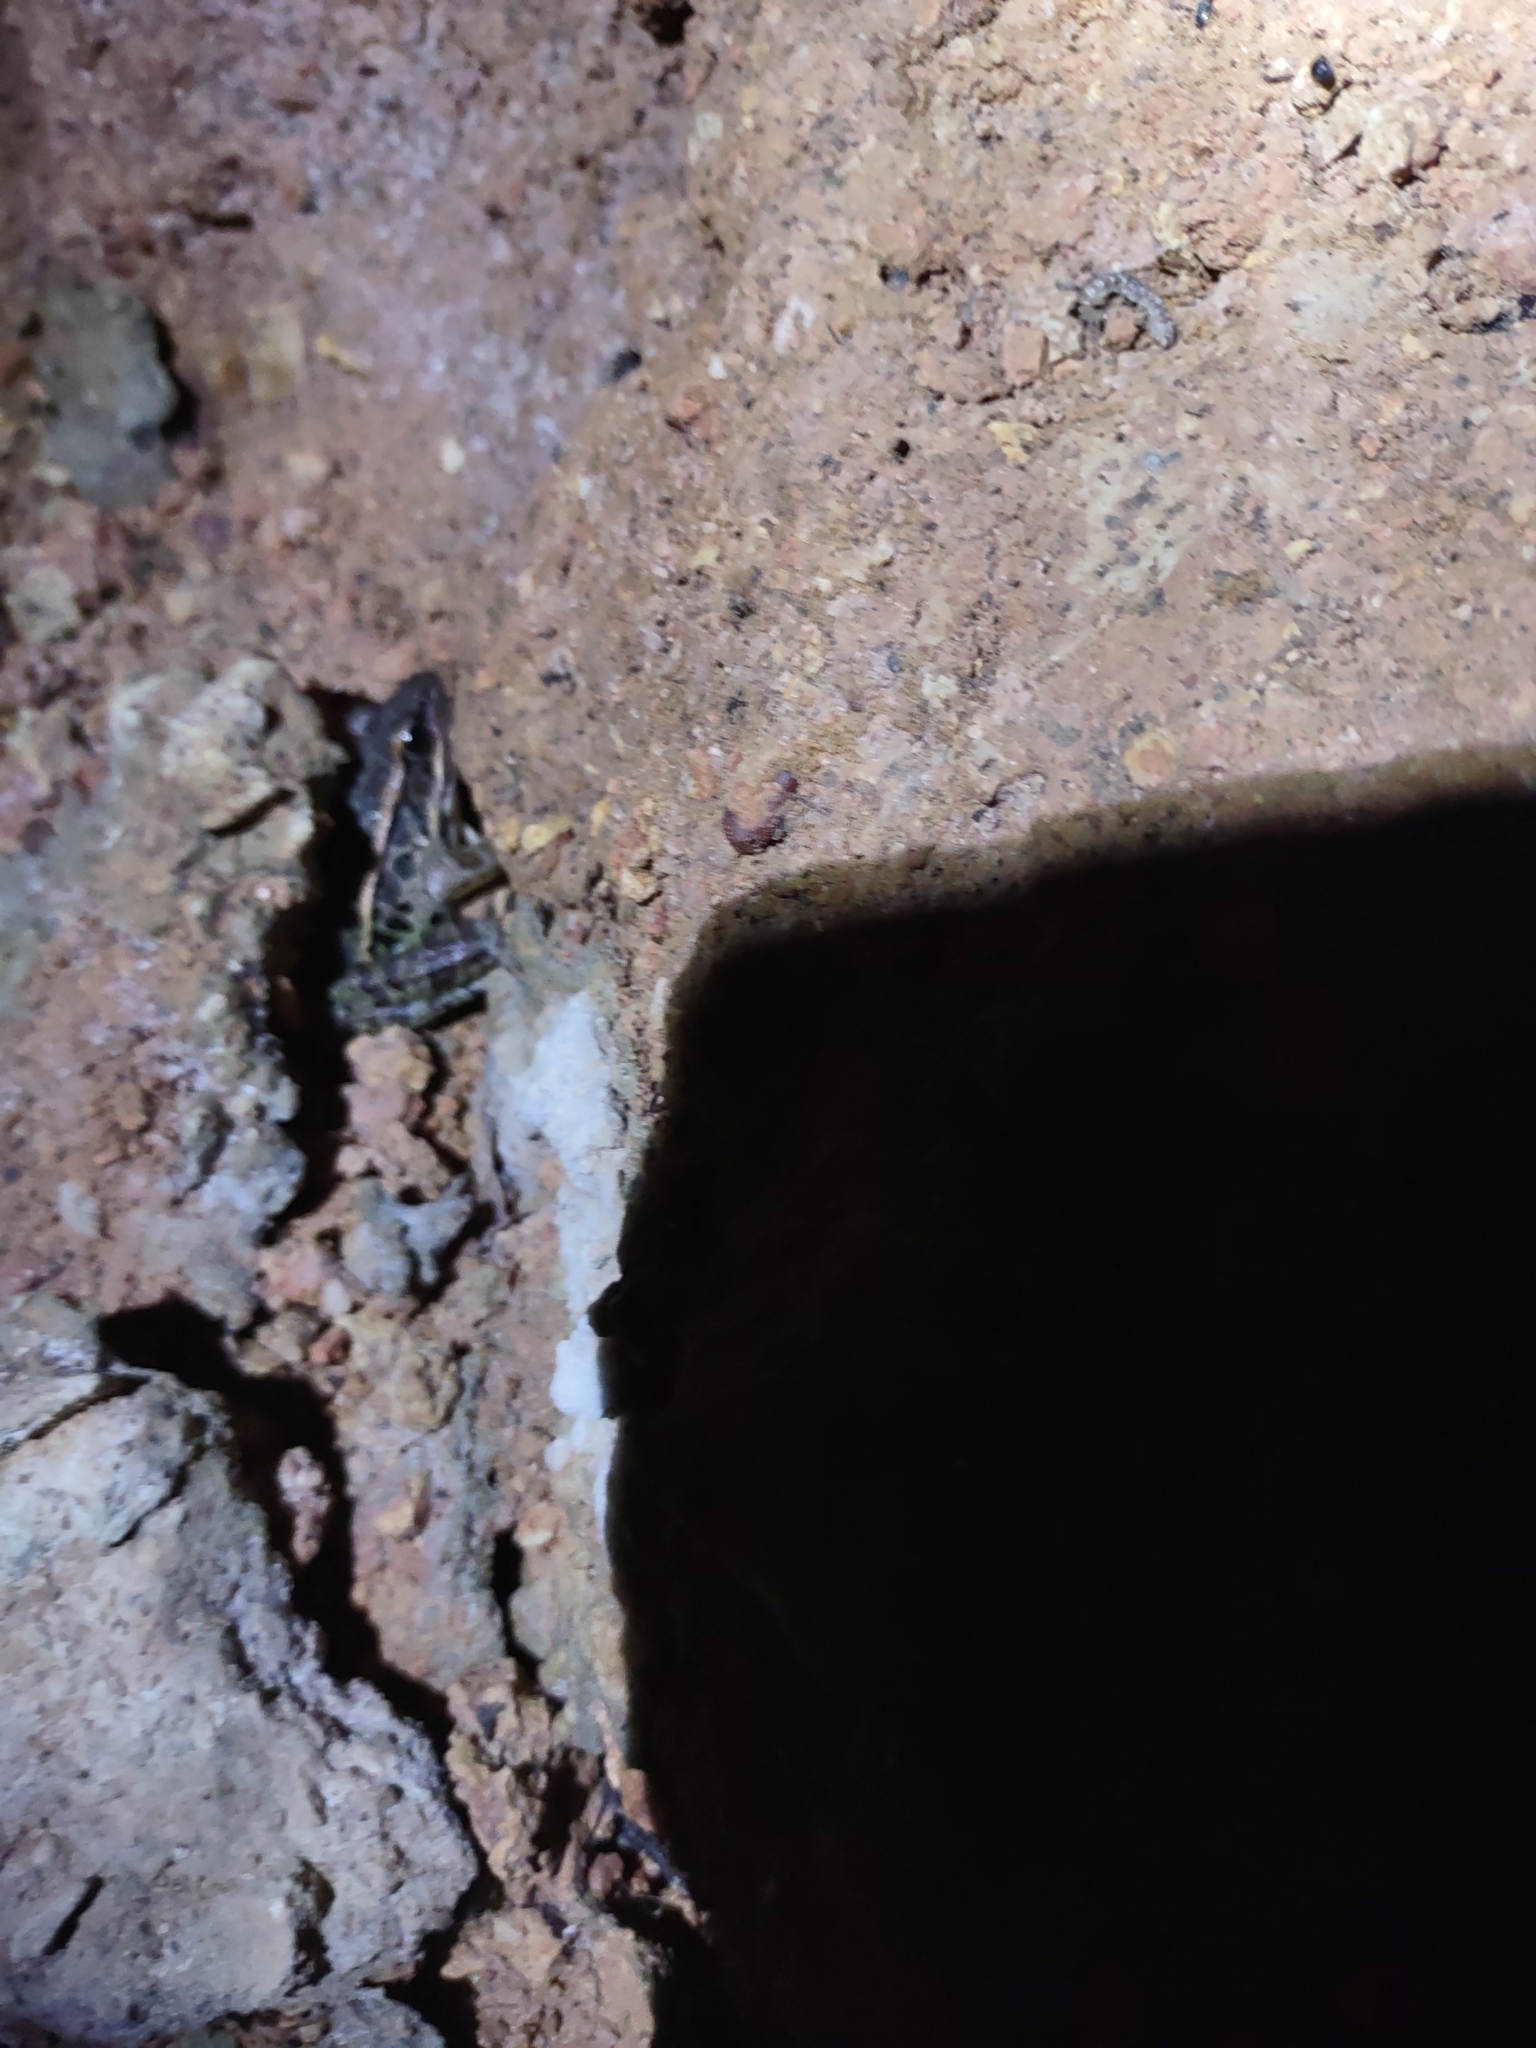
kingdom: Animalia
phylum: Chordata
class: Amphibia
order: Anura
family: Ranidae
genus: Lithobates
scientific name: Lithobates palustris
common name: Pickerel frog
